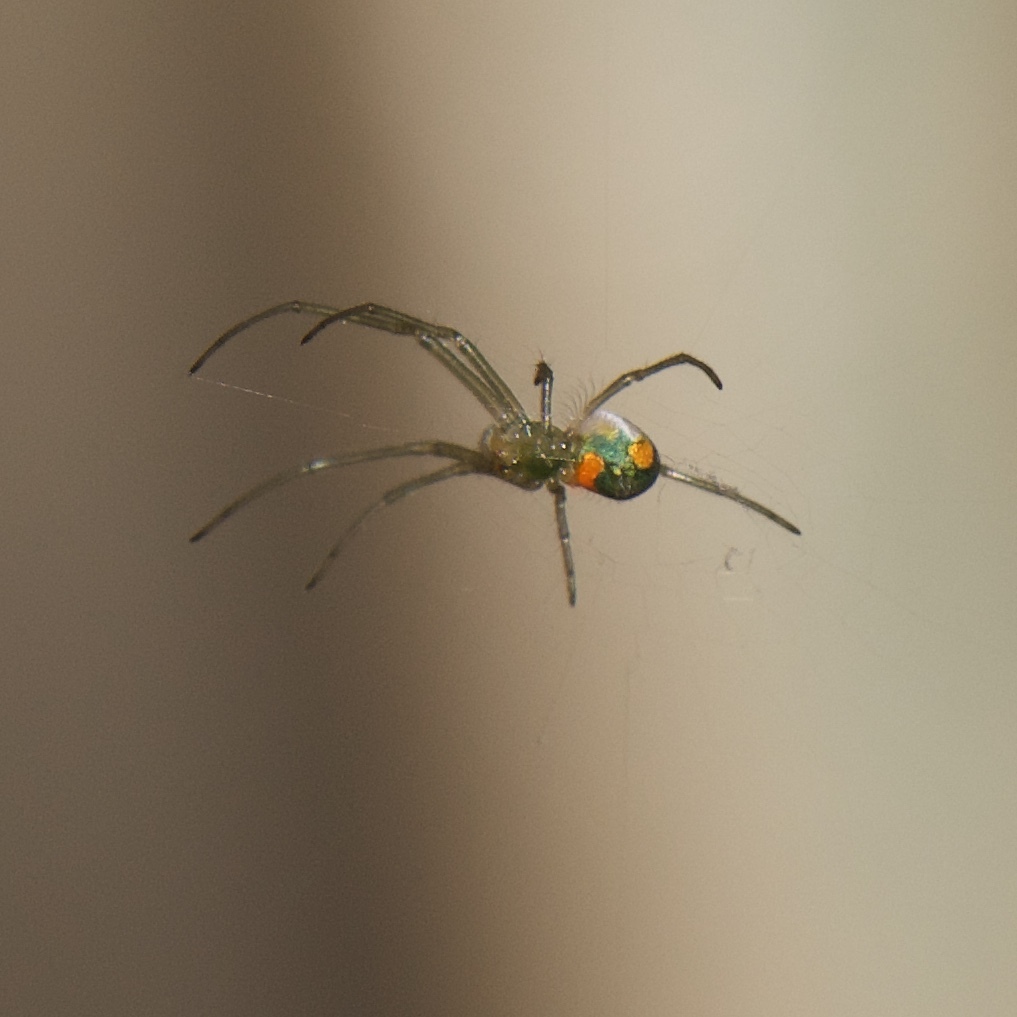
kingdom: Animalia
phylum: Arthropoda
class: Arachnida
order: Araneae
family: Tetragnathidae
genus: Leucauge
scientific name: Leucauge argyrobapta
